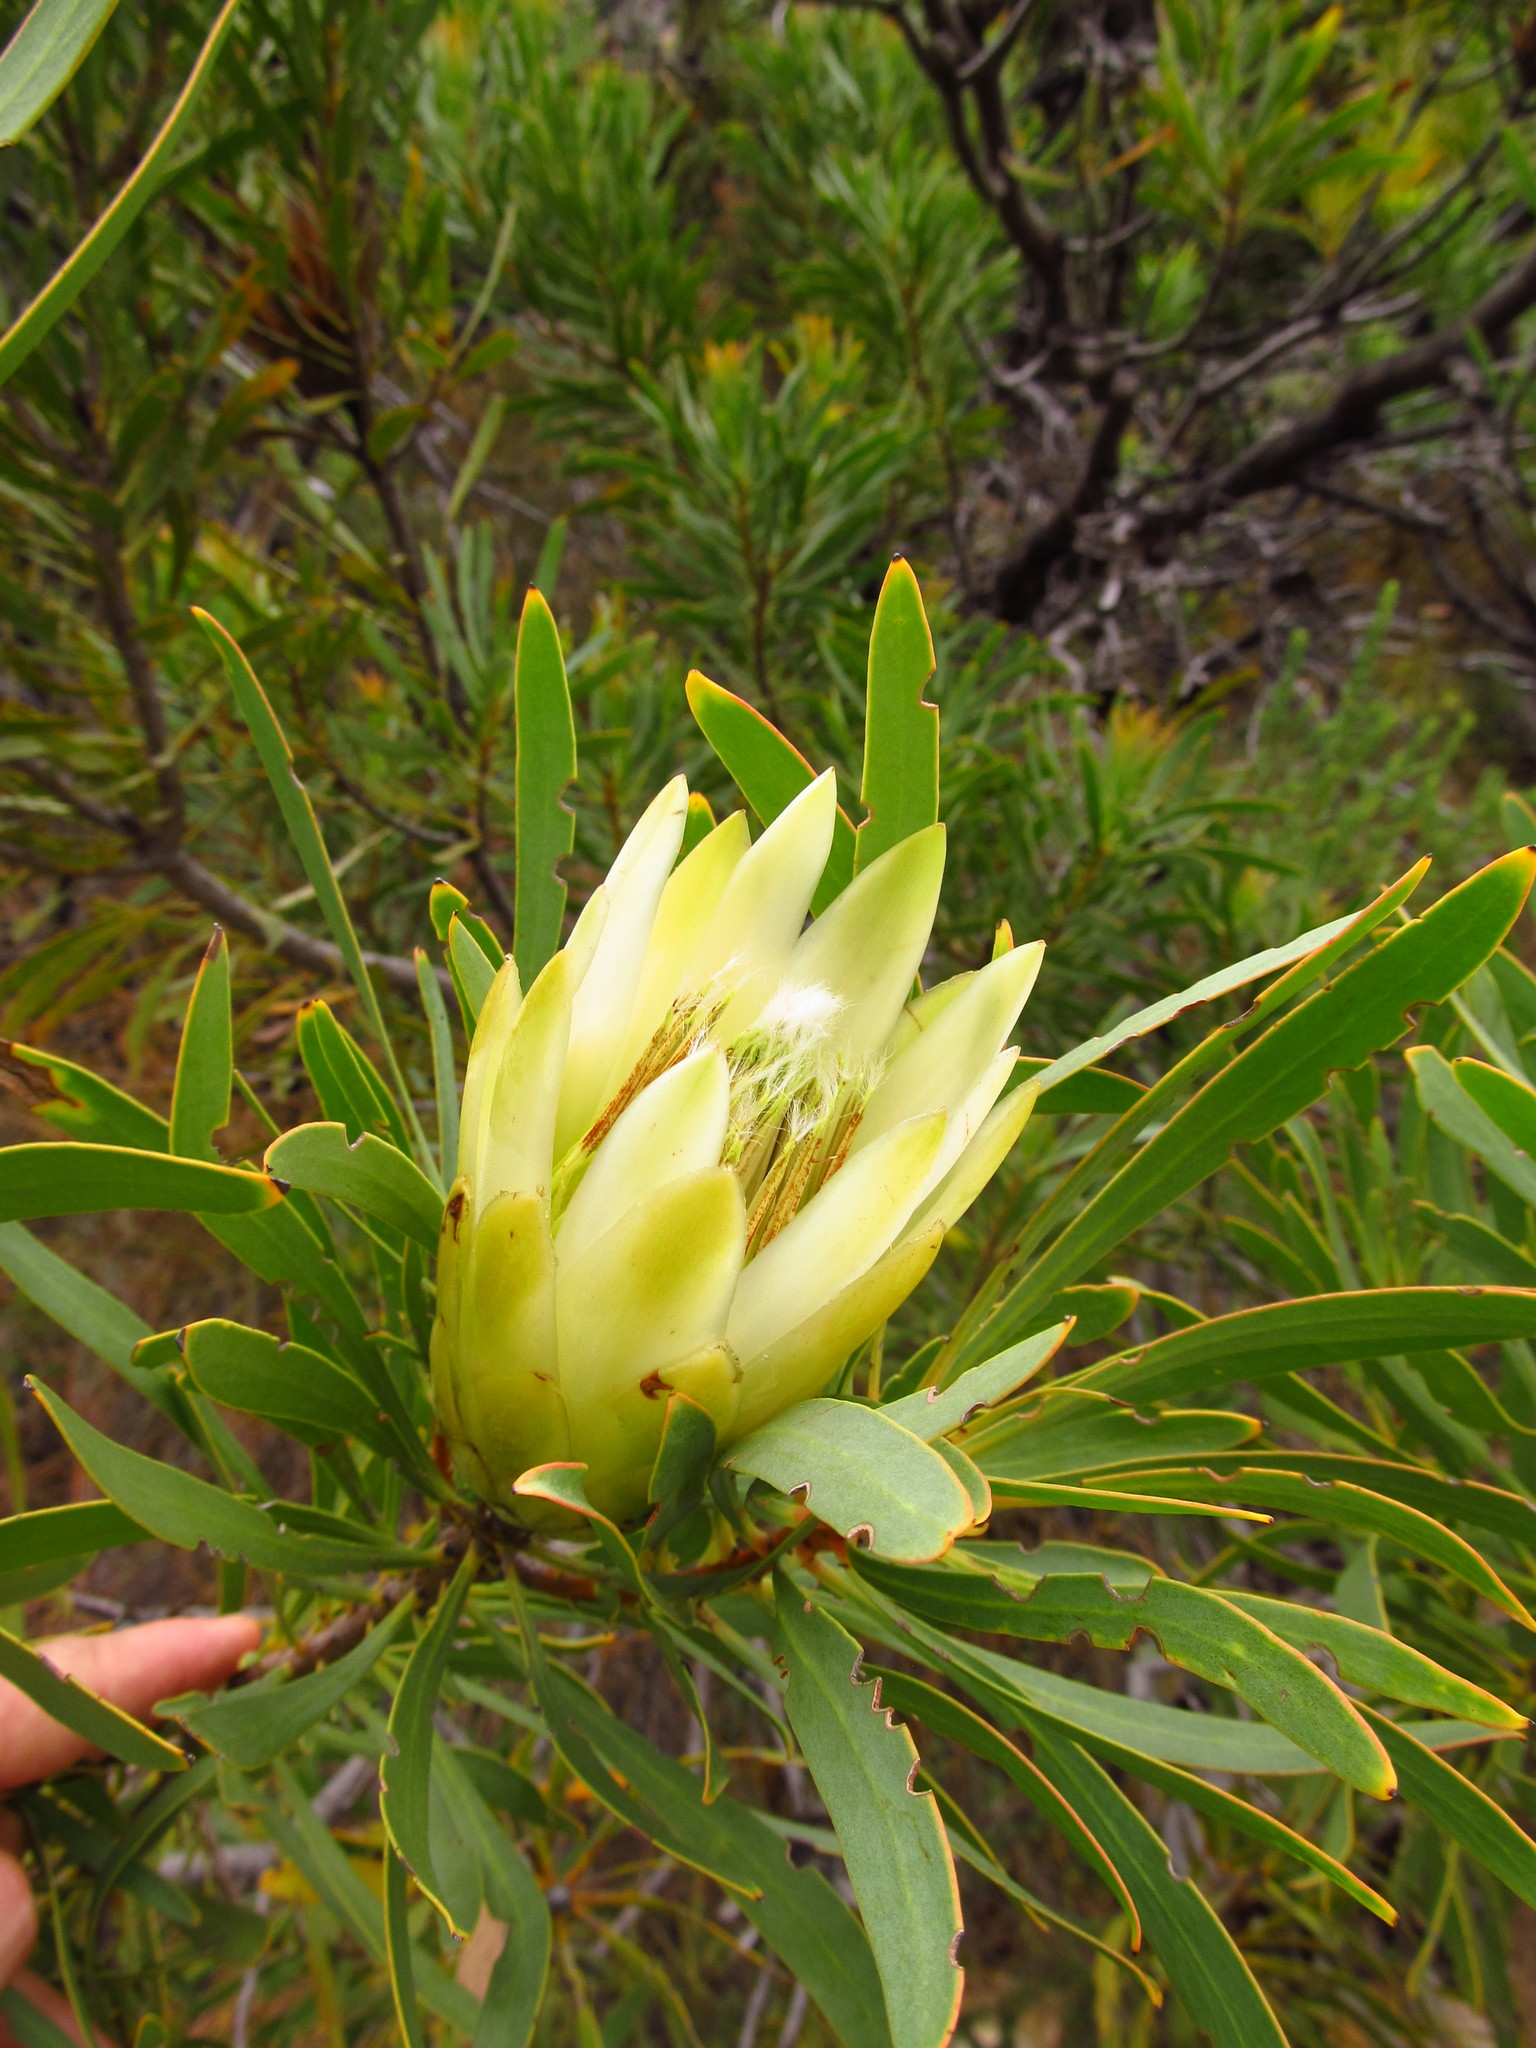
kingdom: Plantae
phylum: Tracheophyta
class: Magnoliopsida
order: Proteales
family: Proteaceae
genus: Protea
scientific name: Protea repens
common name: Sugarbush
